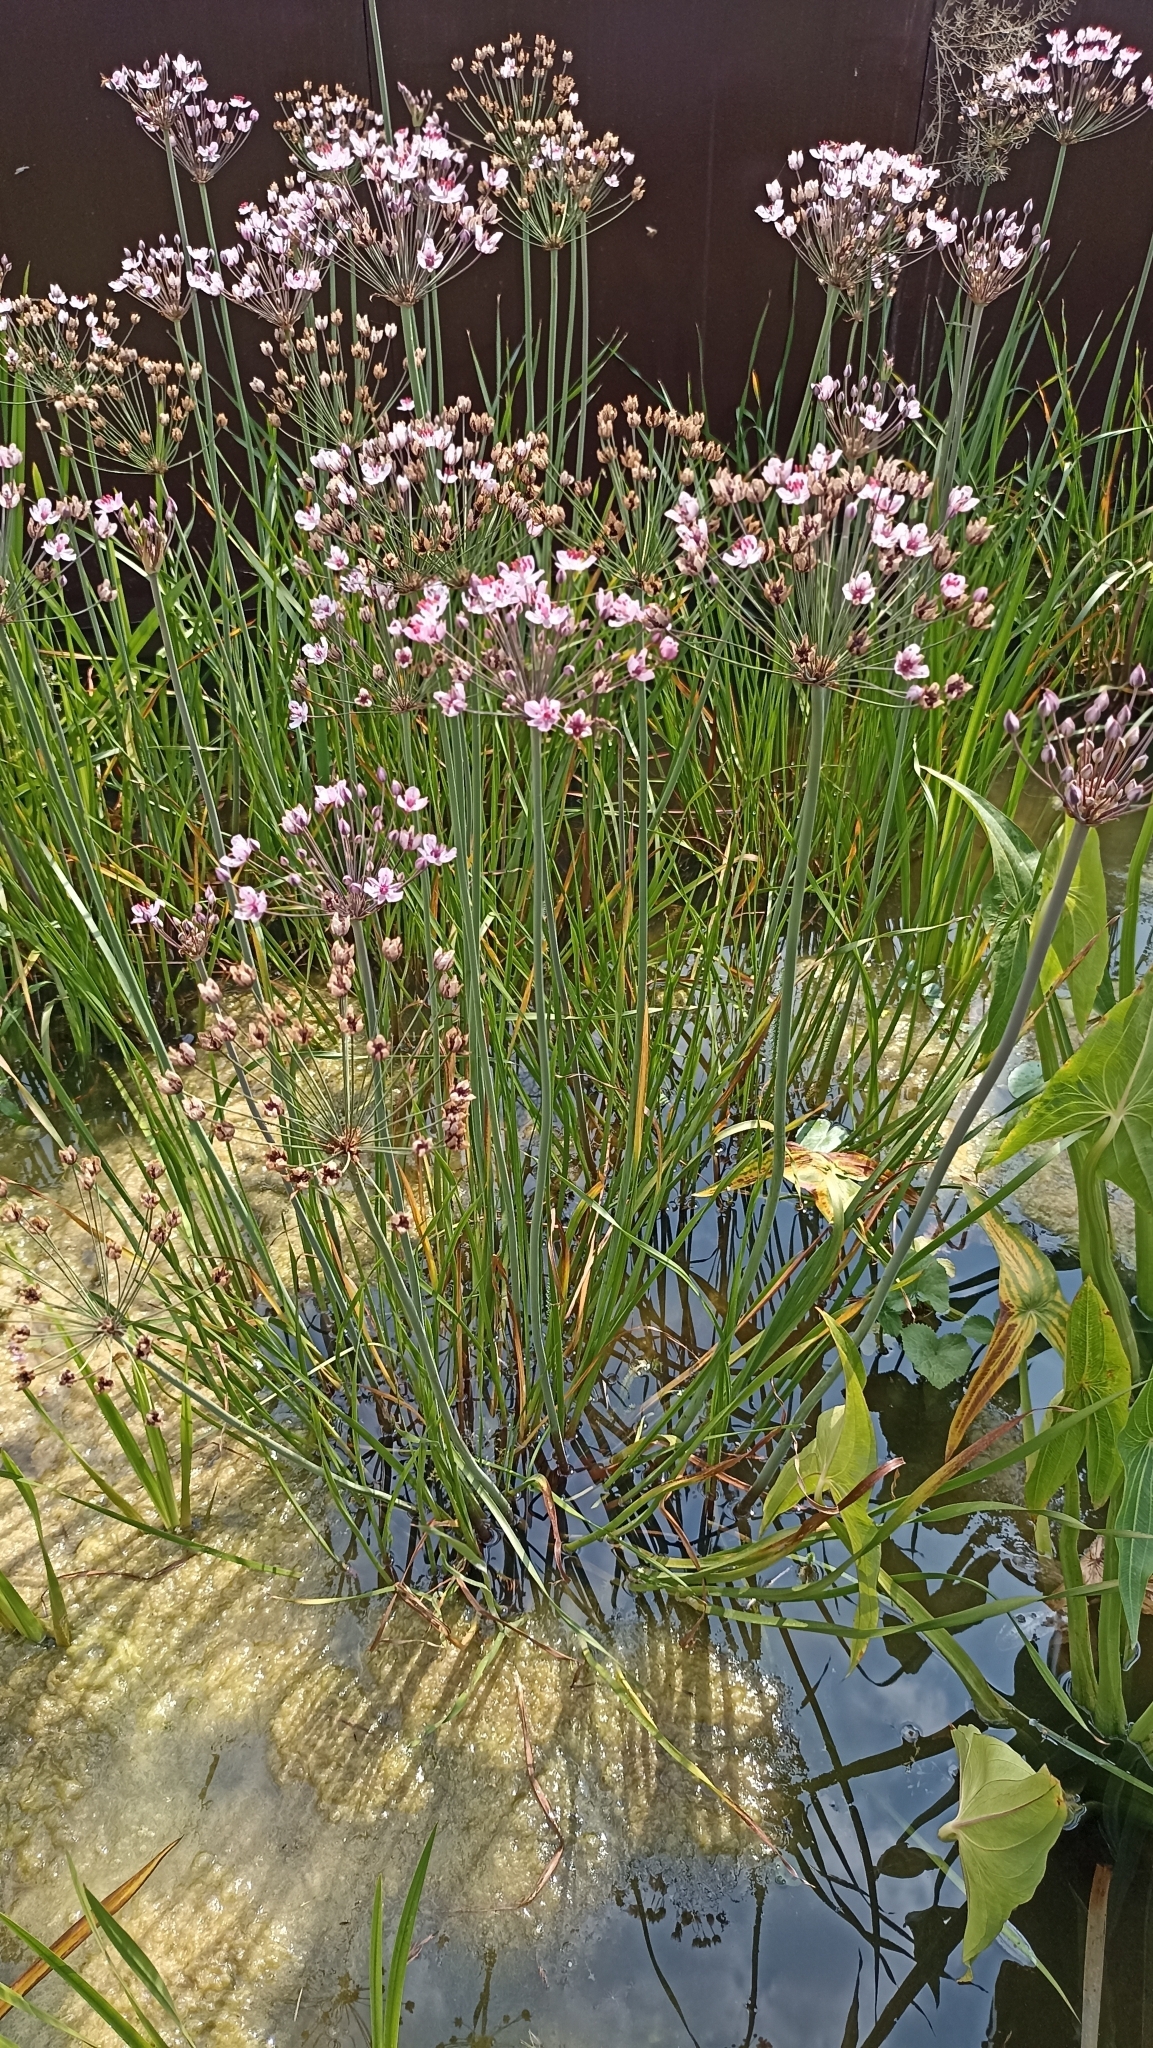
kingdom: Plantae
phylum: Tracheophyta
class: Liliopsida
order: Alismatales
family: Butomaceae
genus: Butomus
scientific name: Butomus umbellatus
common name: Flowering-rush
